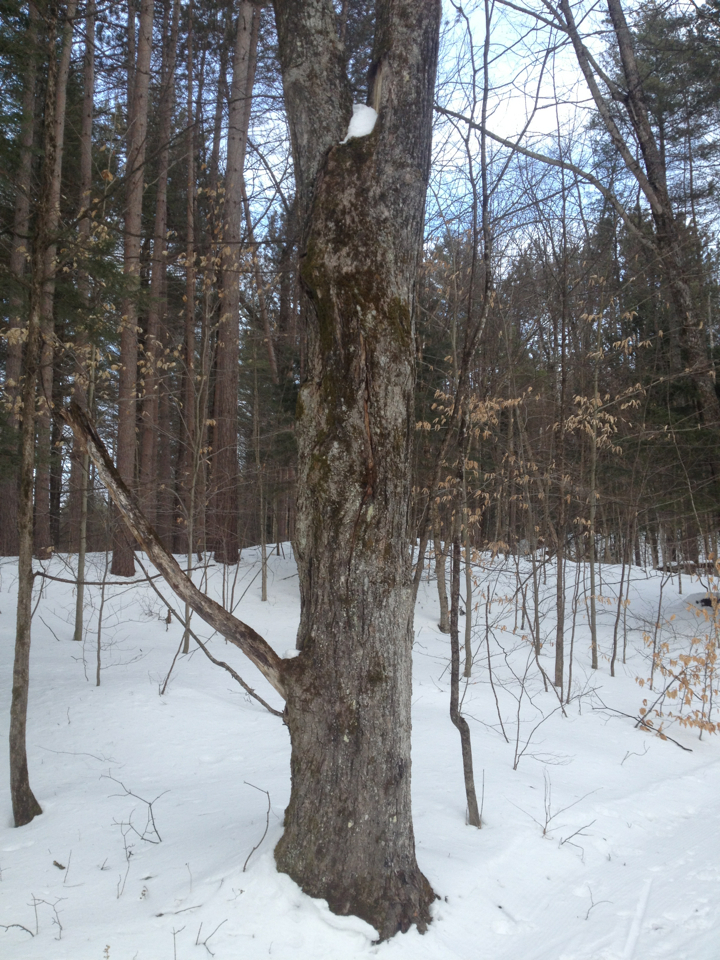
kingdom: Plantae
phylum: Tracheophyta
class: Magnoliopsida
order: Sapindales
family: Sapindaceae
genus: Acer
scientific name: Acer saccharum
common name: Sugar maple
